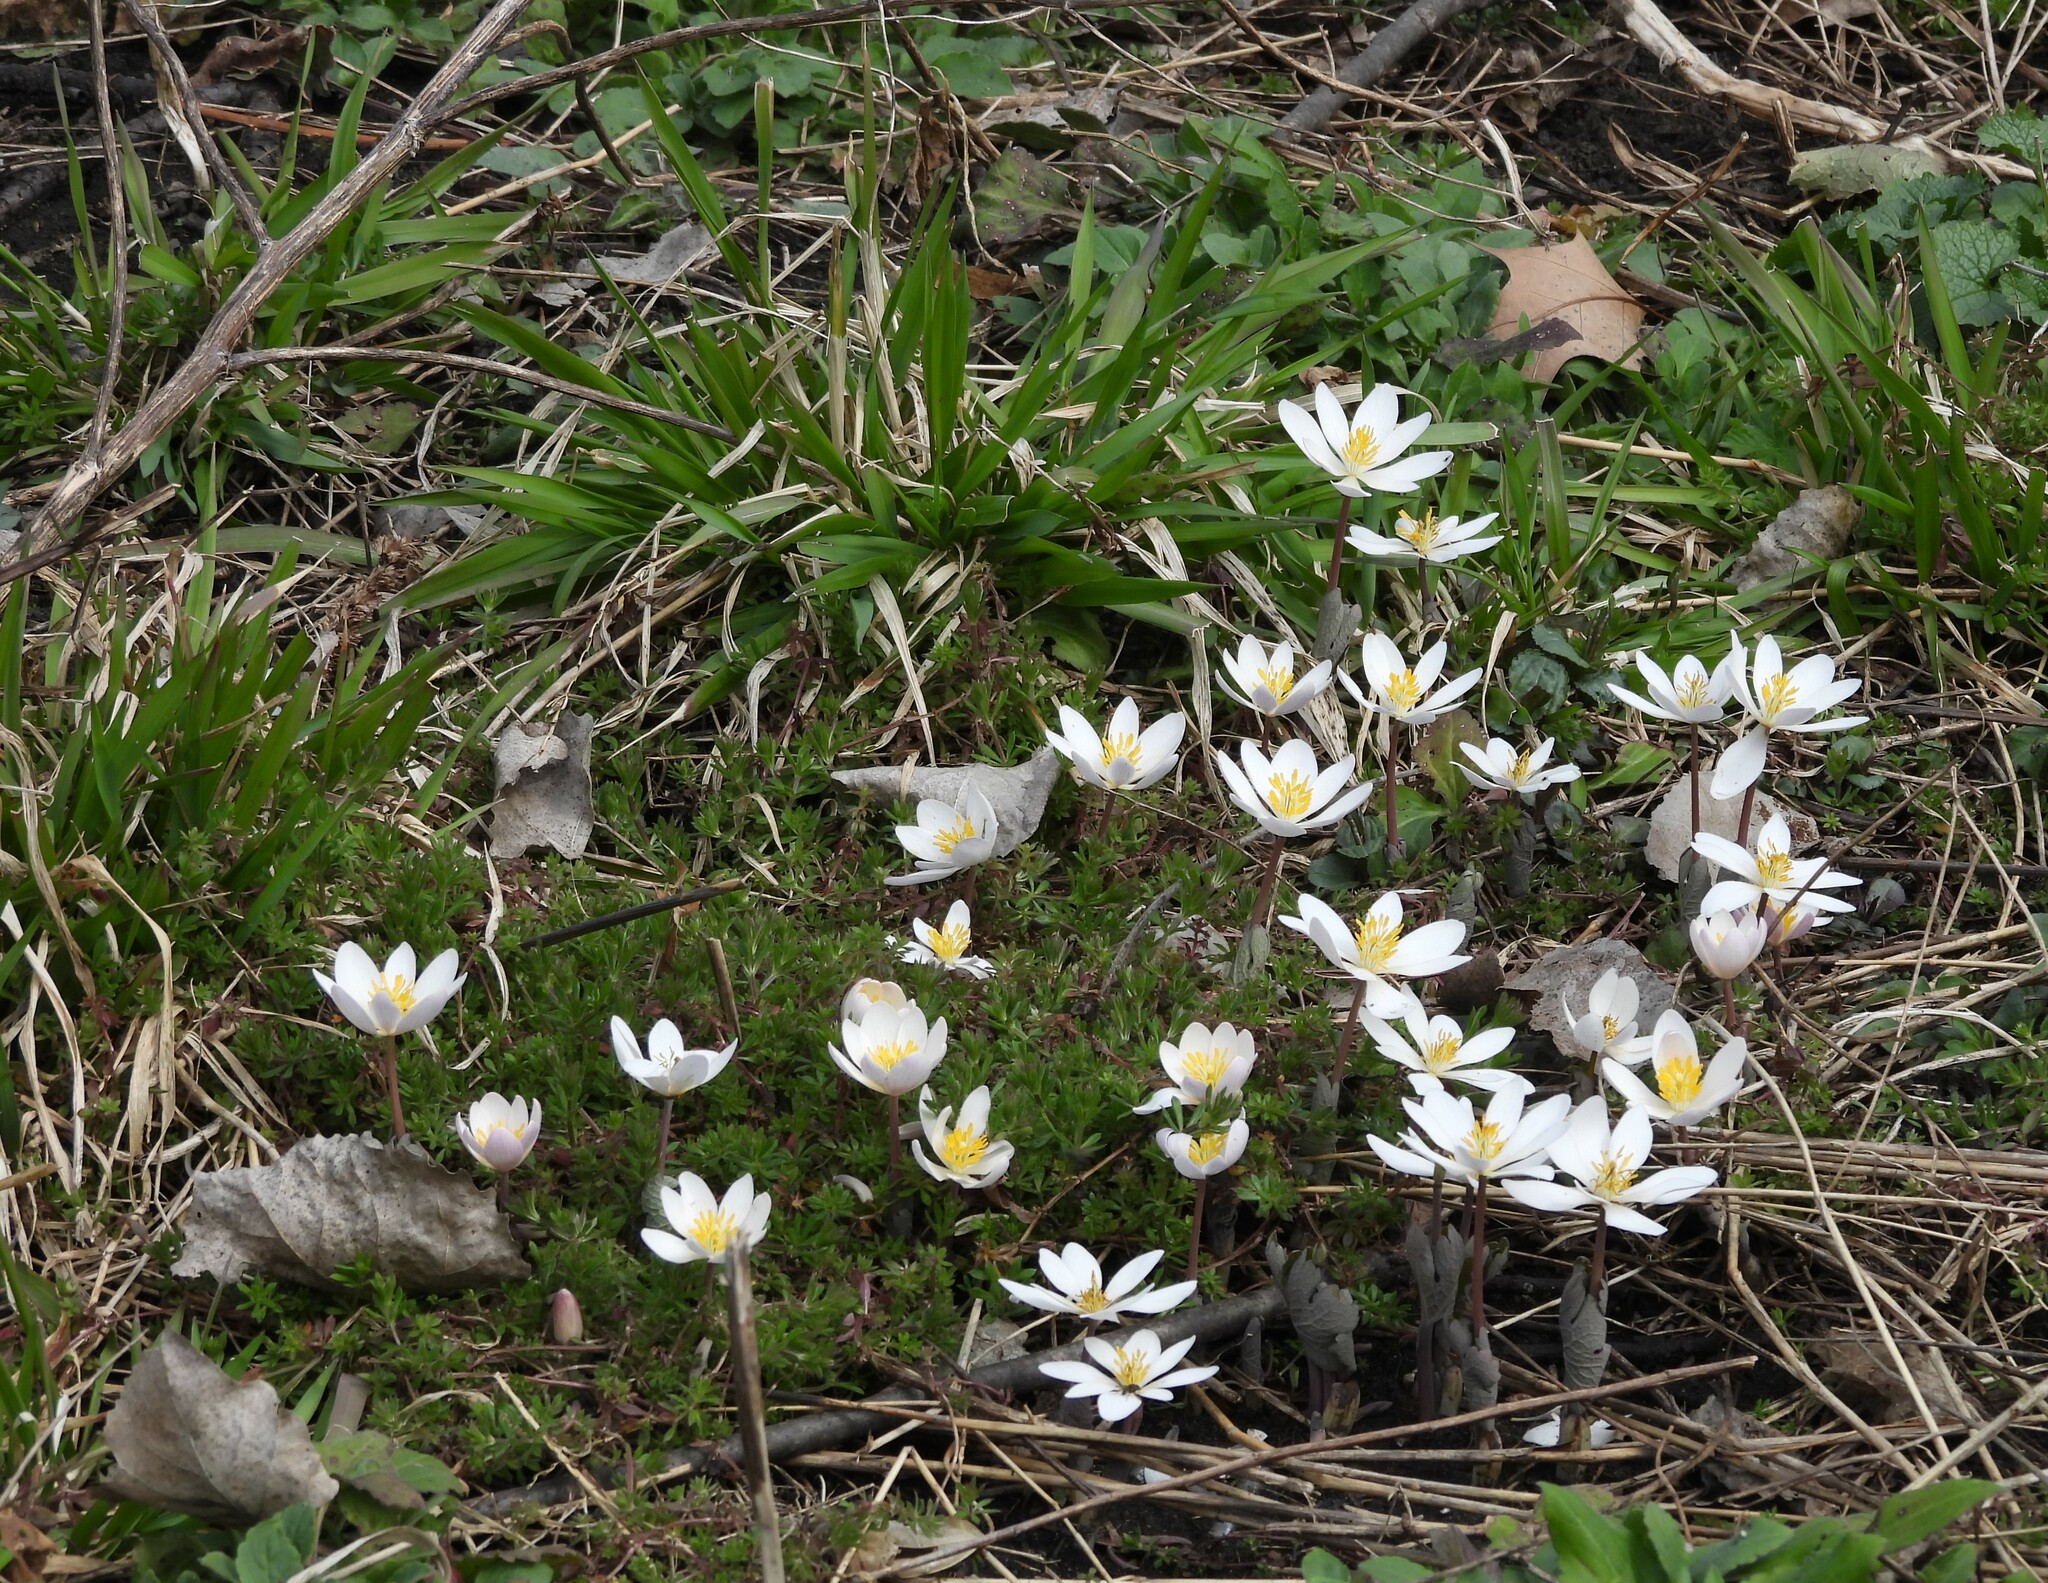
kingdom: Plantae
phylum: Tracheophyta
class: Magnoliopsida
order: Ranunculales
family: Papaveraceae
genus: Sanguinaria
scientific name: Sanguinaria canadensis
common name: Bloodroot
